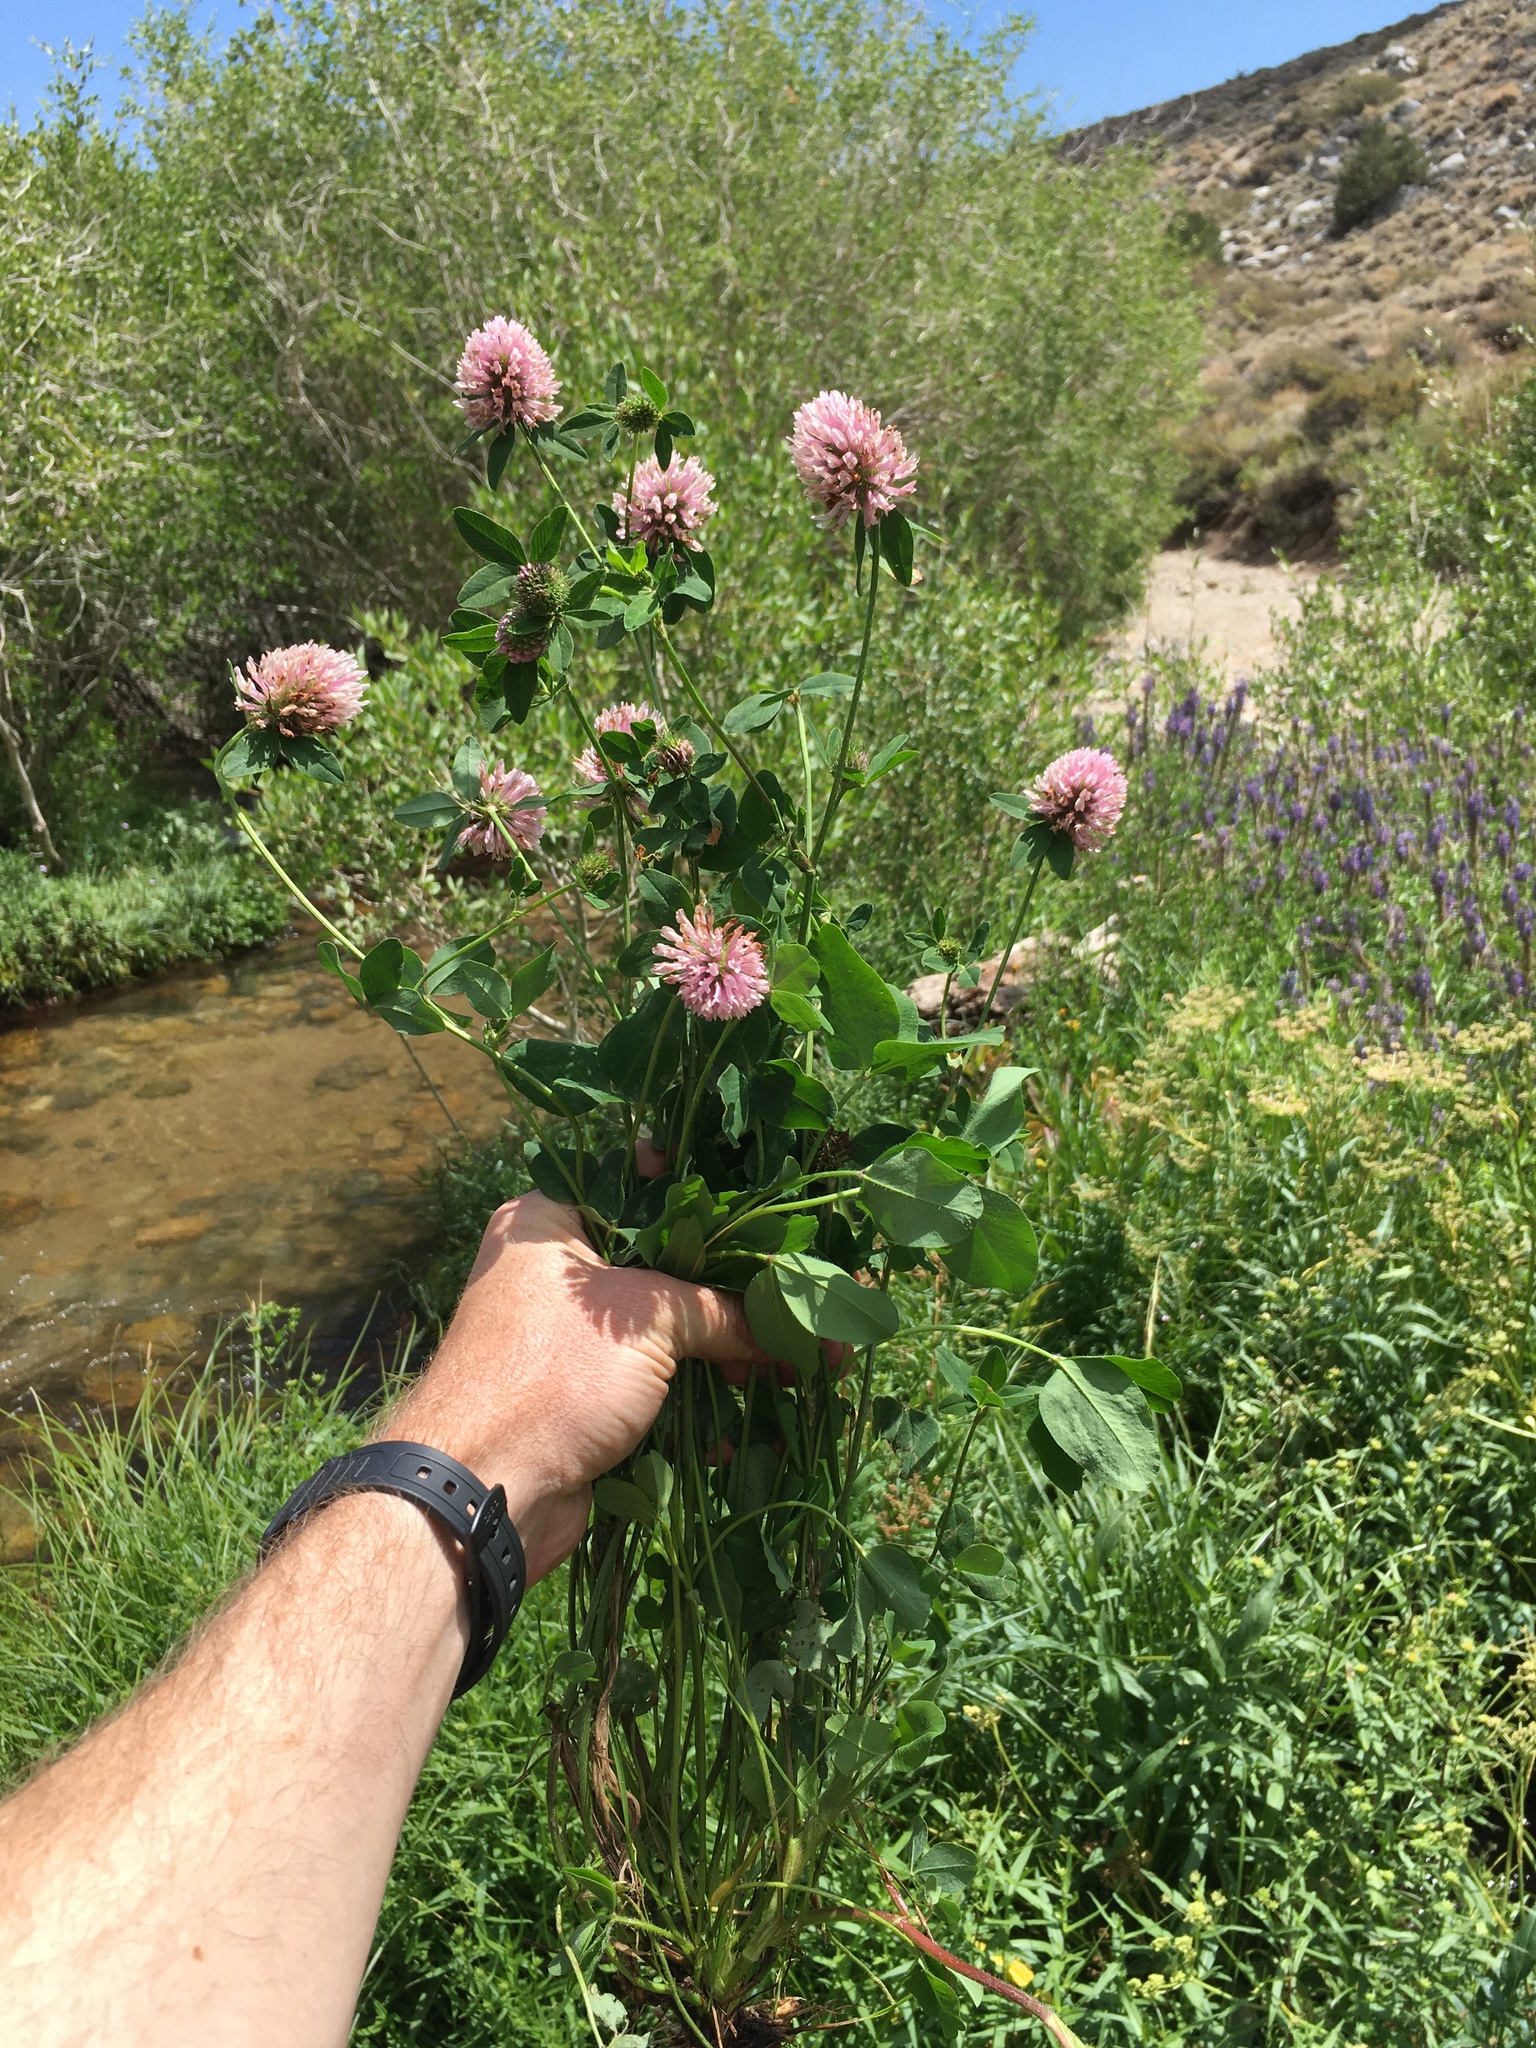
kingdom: Plantae
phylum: Tracheophyta
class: Magnoliopsida
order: Fabales
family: Fabaceae
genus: Trifolium
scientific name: Trifolium pratense
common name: Red clover
